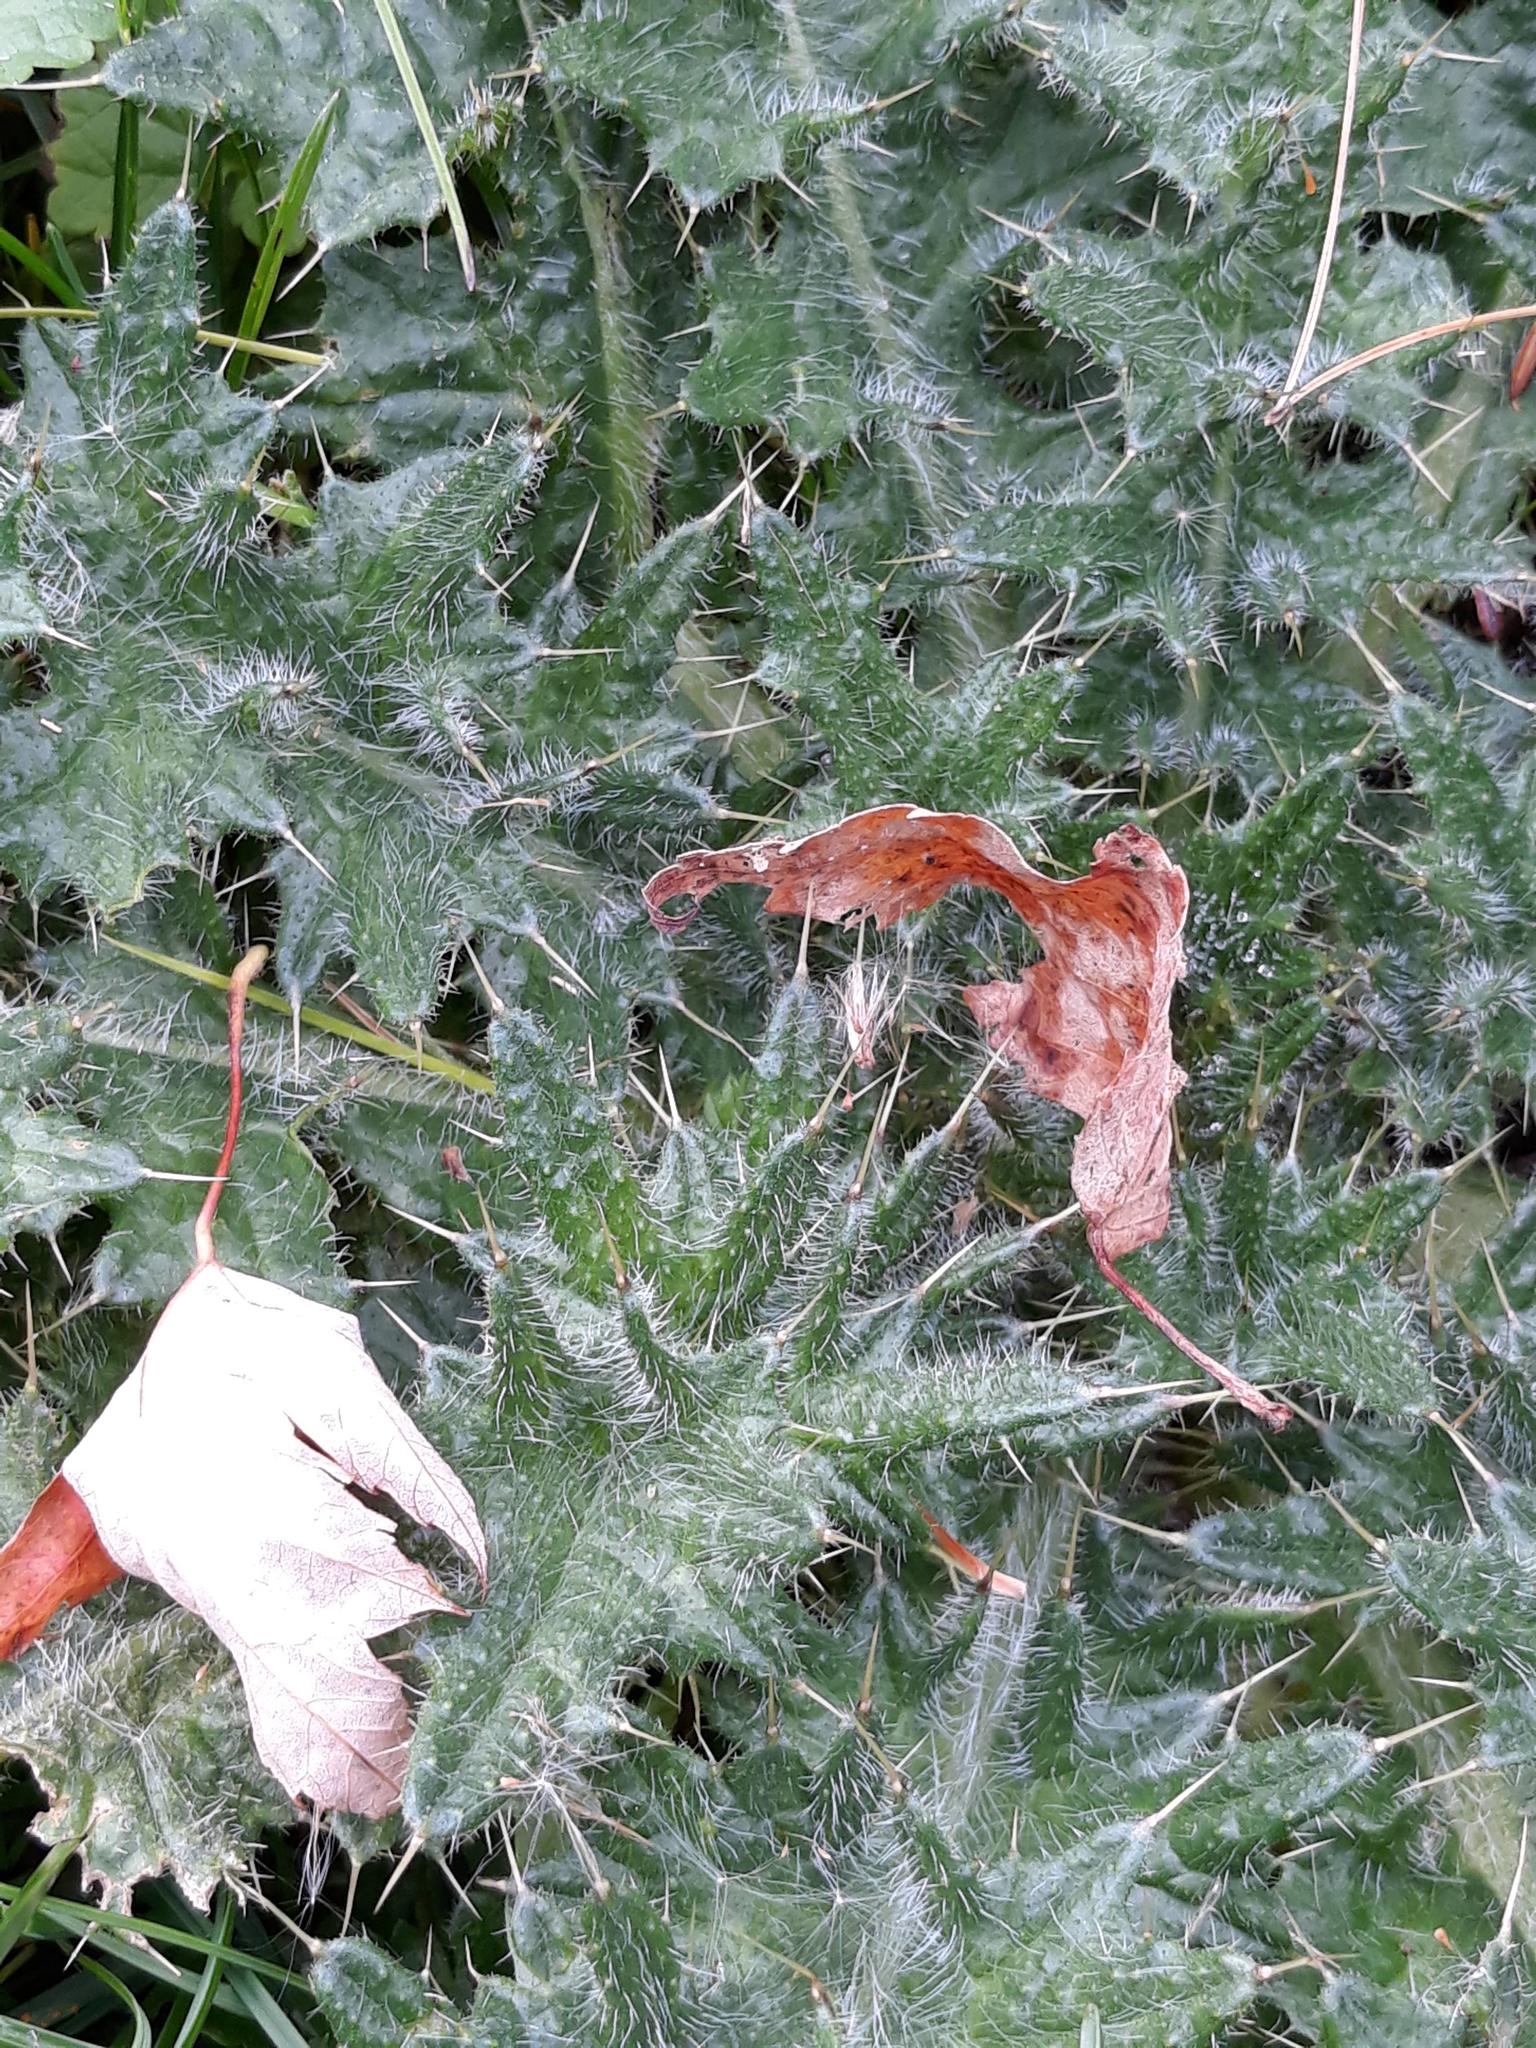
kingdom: Plantae
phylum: Tracheophyta
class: Magnoliopsida
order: Asterales
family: Asteraceae
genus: Cirsium
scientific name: Cirsium vulgare
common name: Bull thistle
